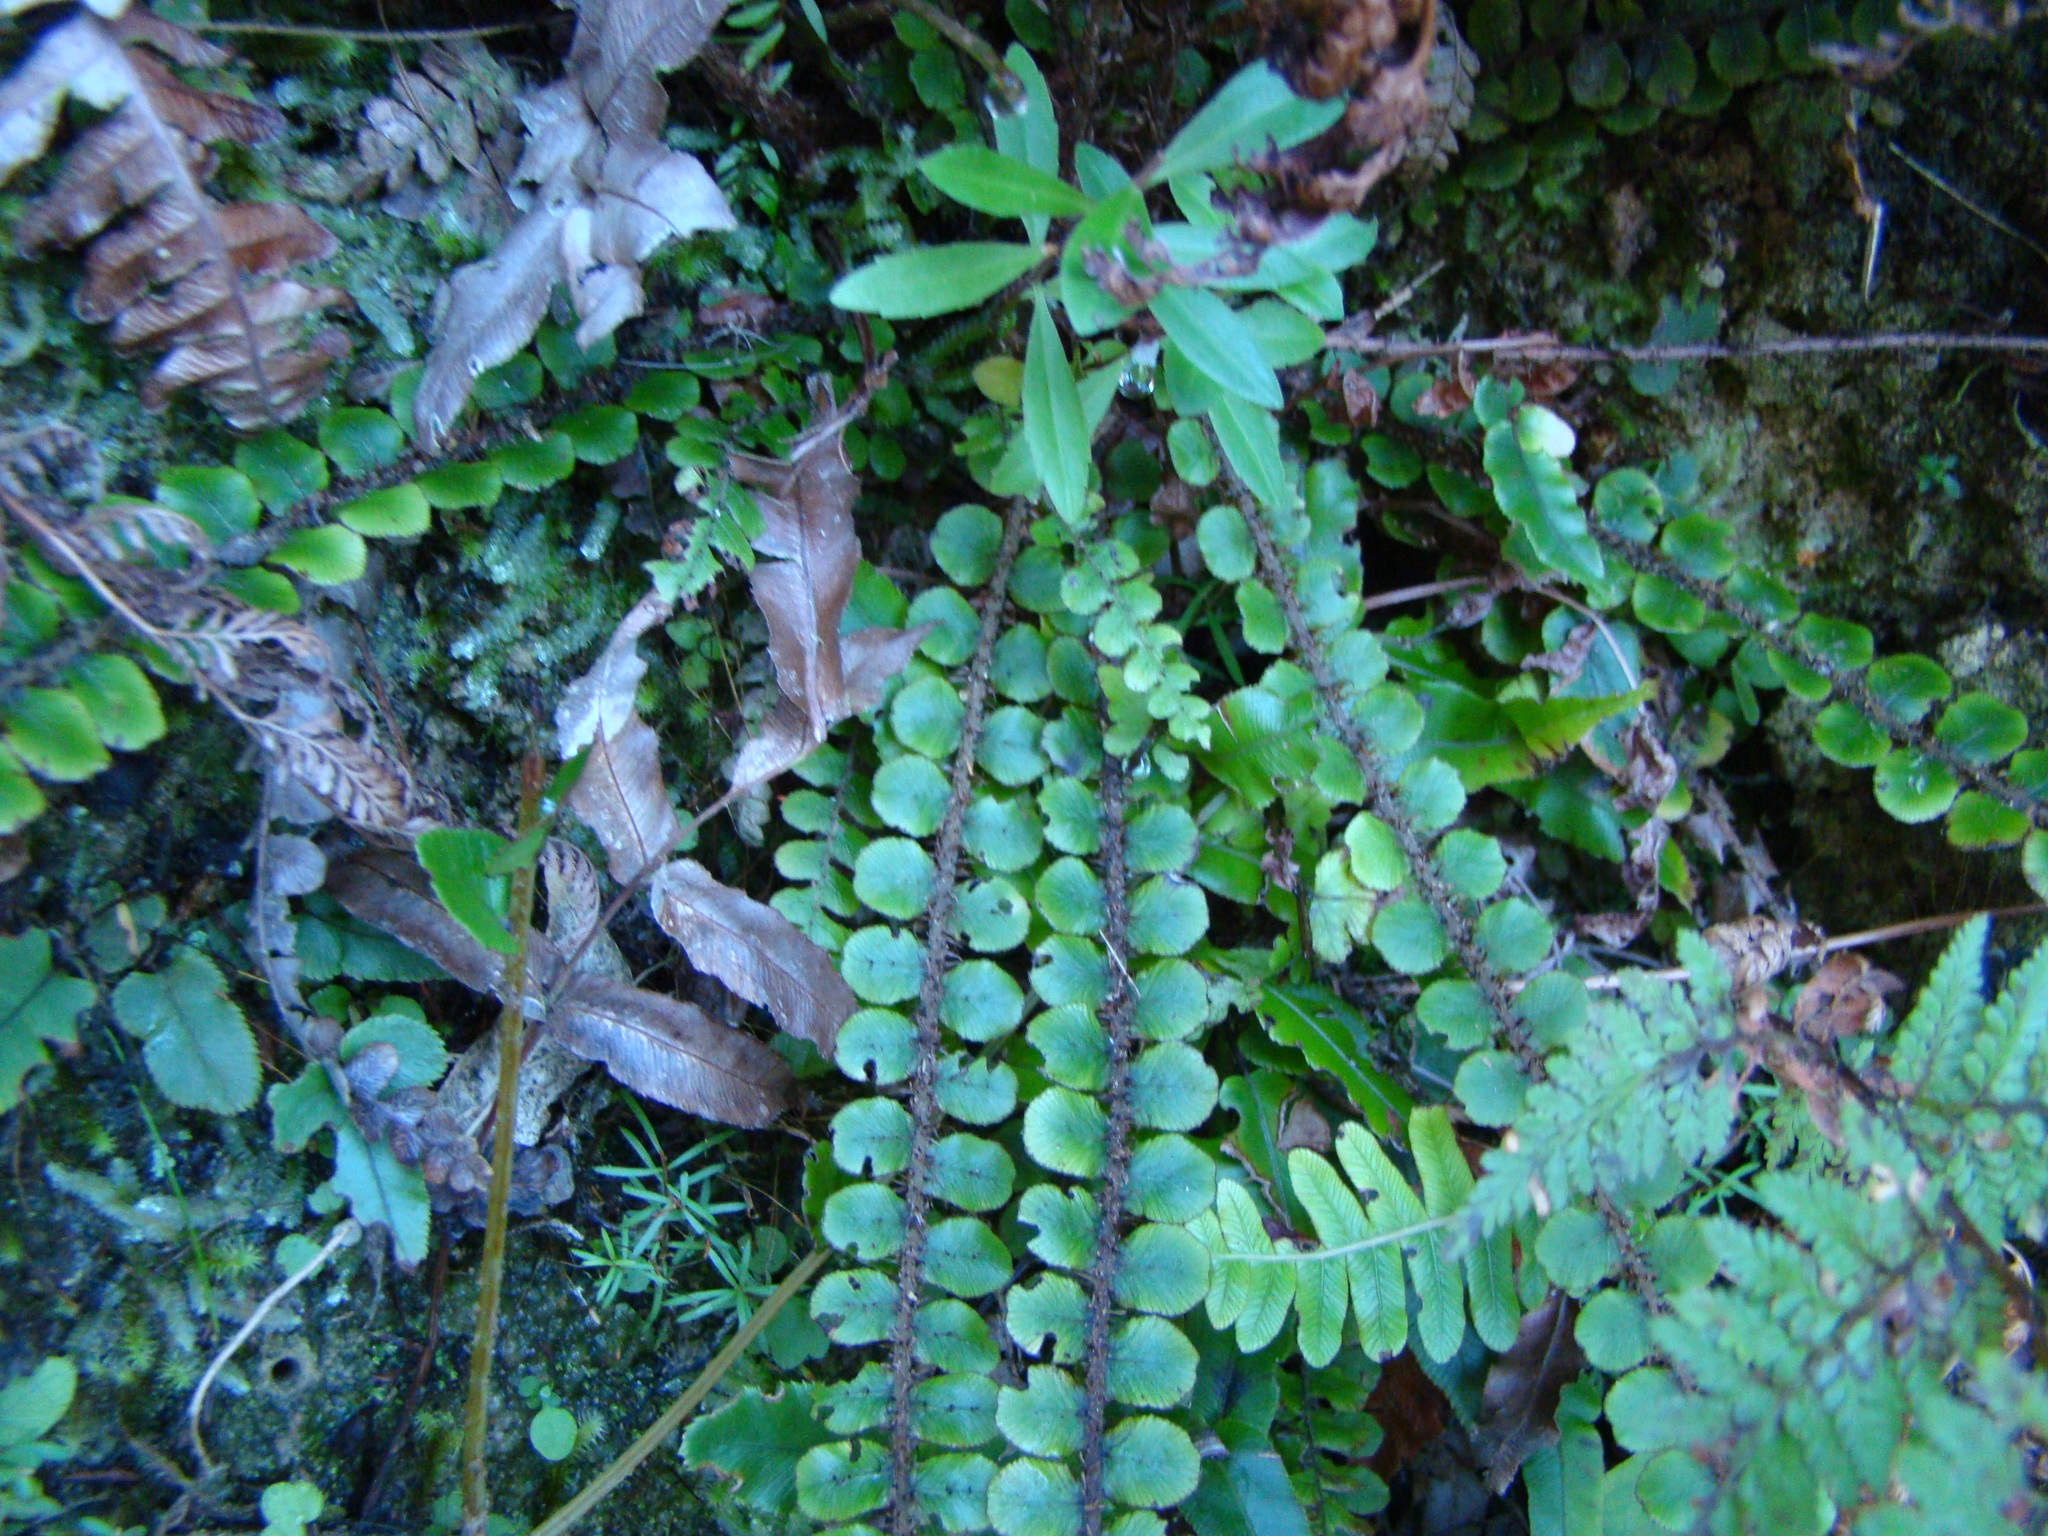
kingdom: Plantae
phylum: Tracheophyta
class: Polypodiopsida
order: Polypodiales
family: Blechnaceae
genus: Cranfillia
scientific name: Cranfillia fluviatilis
